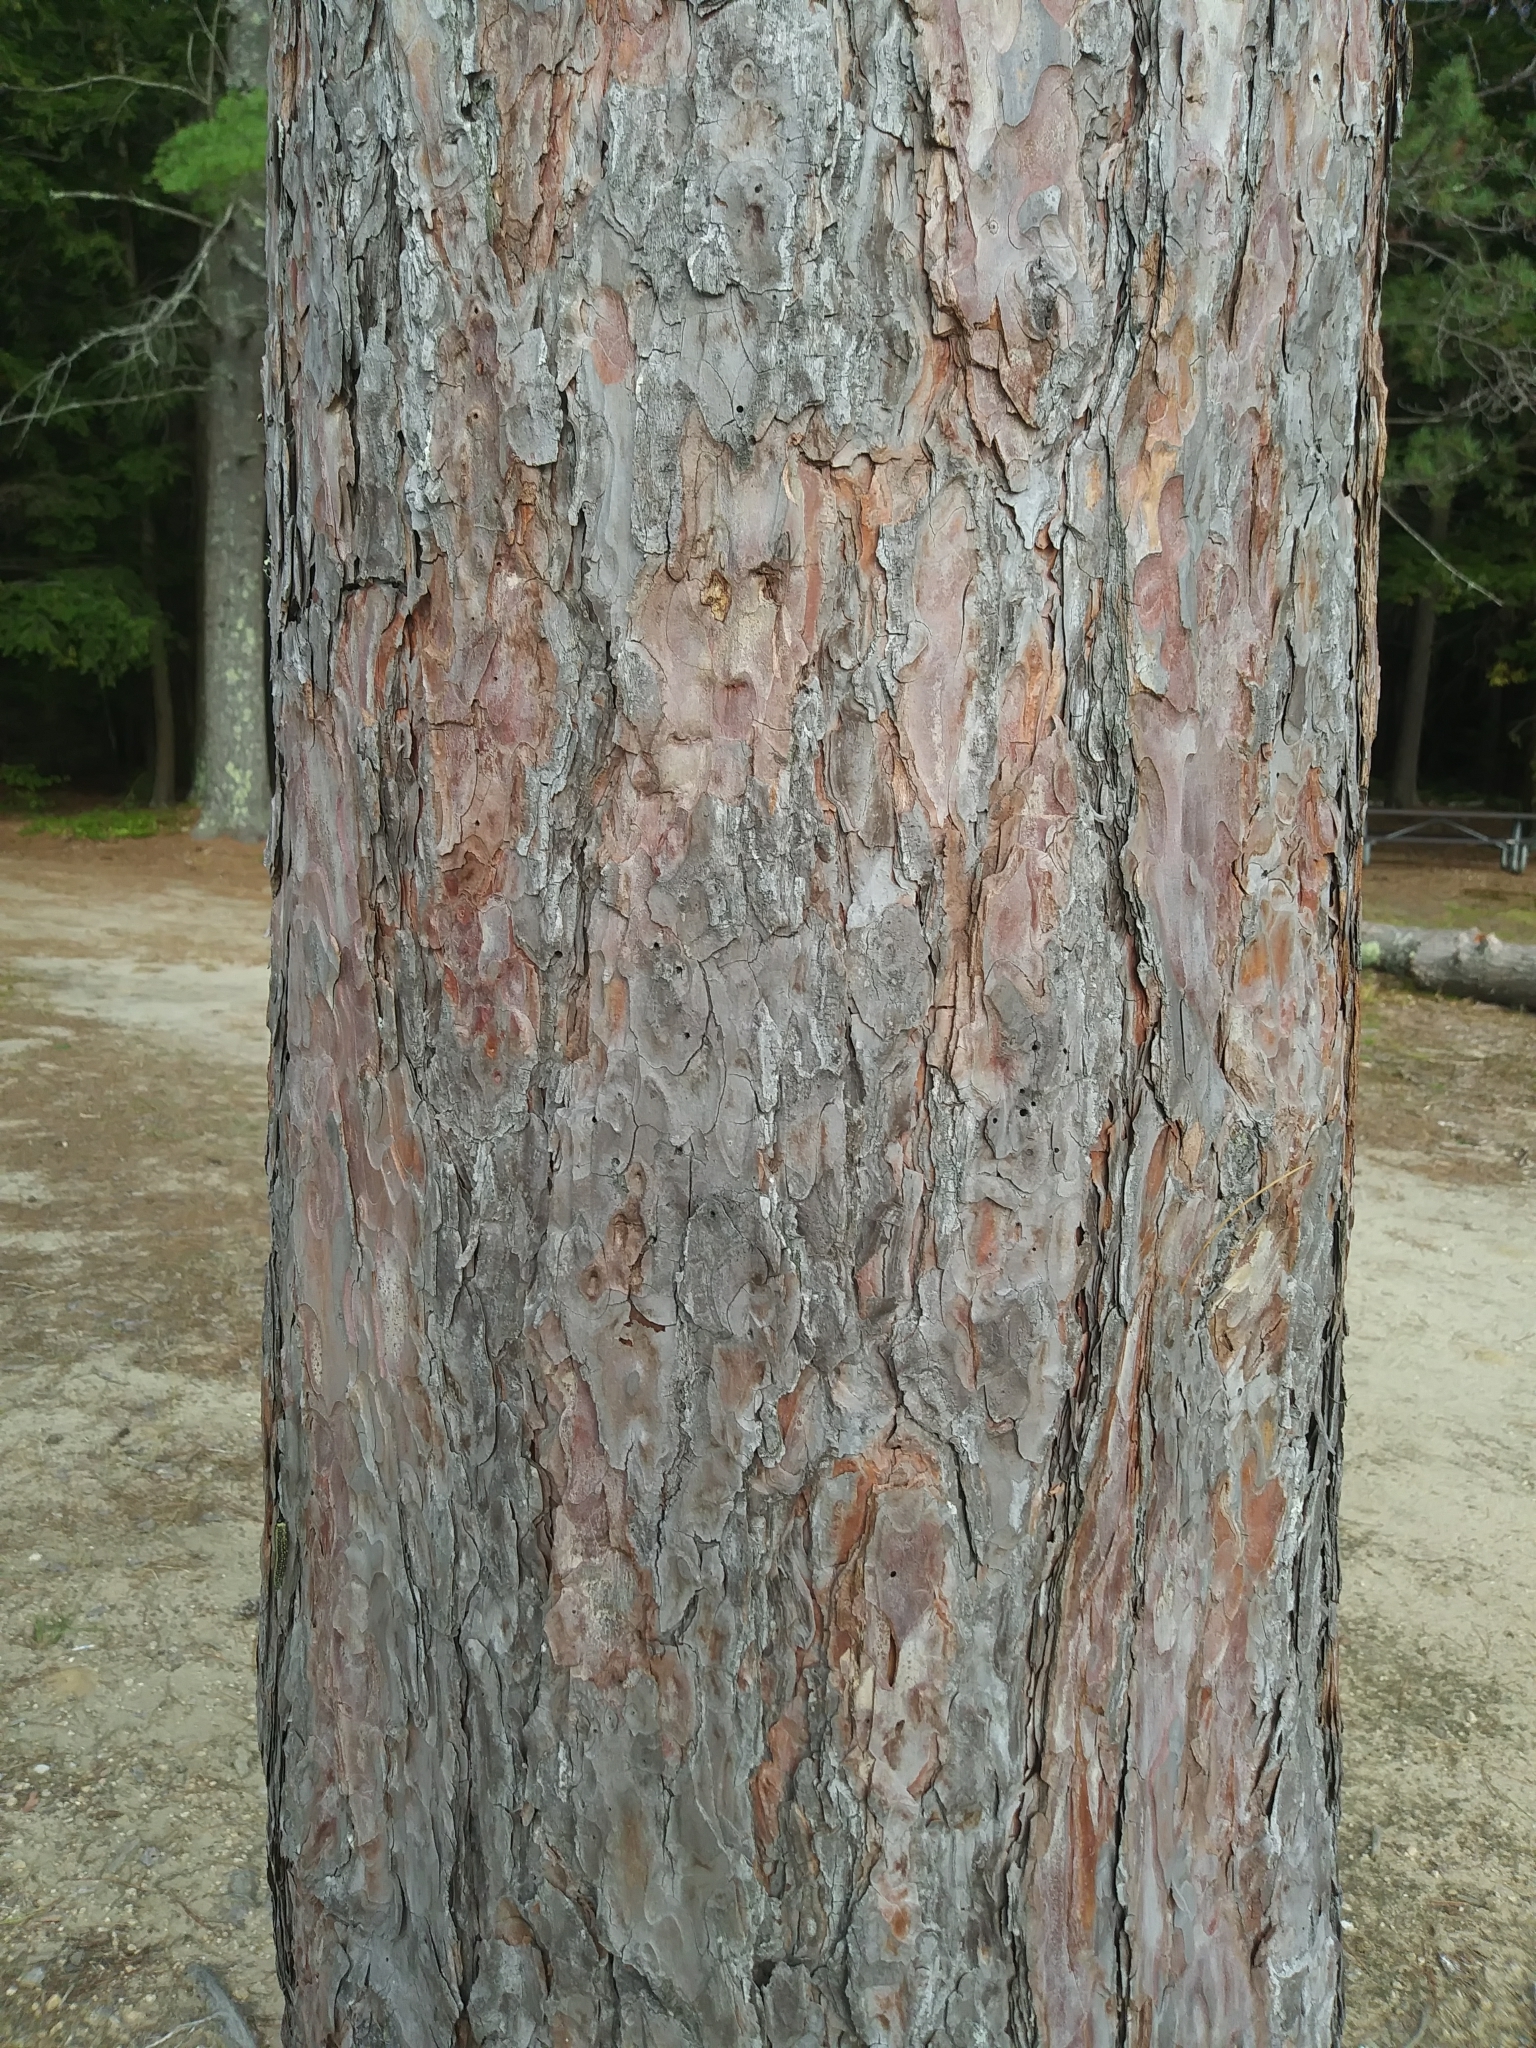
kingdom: Plantae
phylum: Tracheophyta
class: Pinopsida
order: Pinales
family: Pinaceae
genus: Pinus
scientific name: Pinus resinosa
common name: Norway pine
